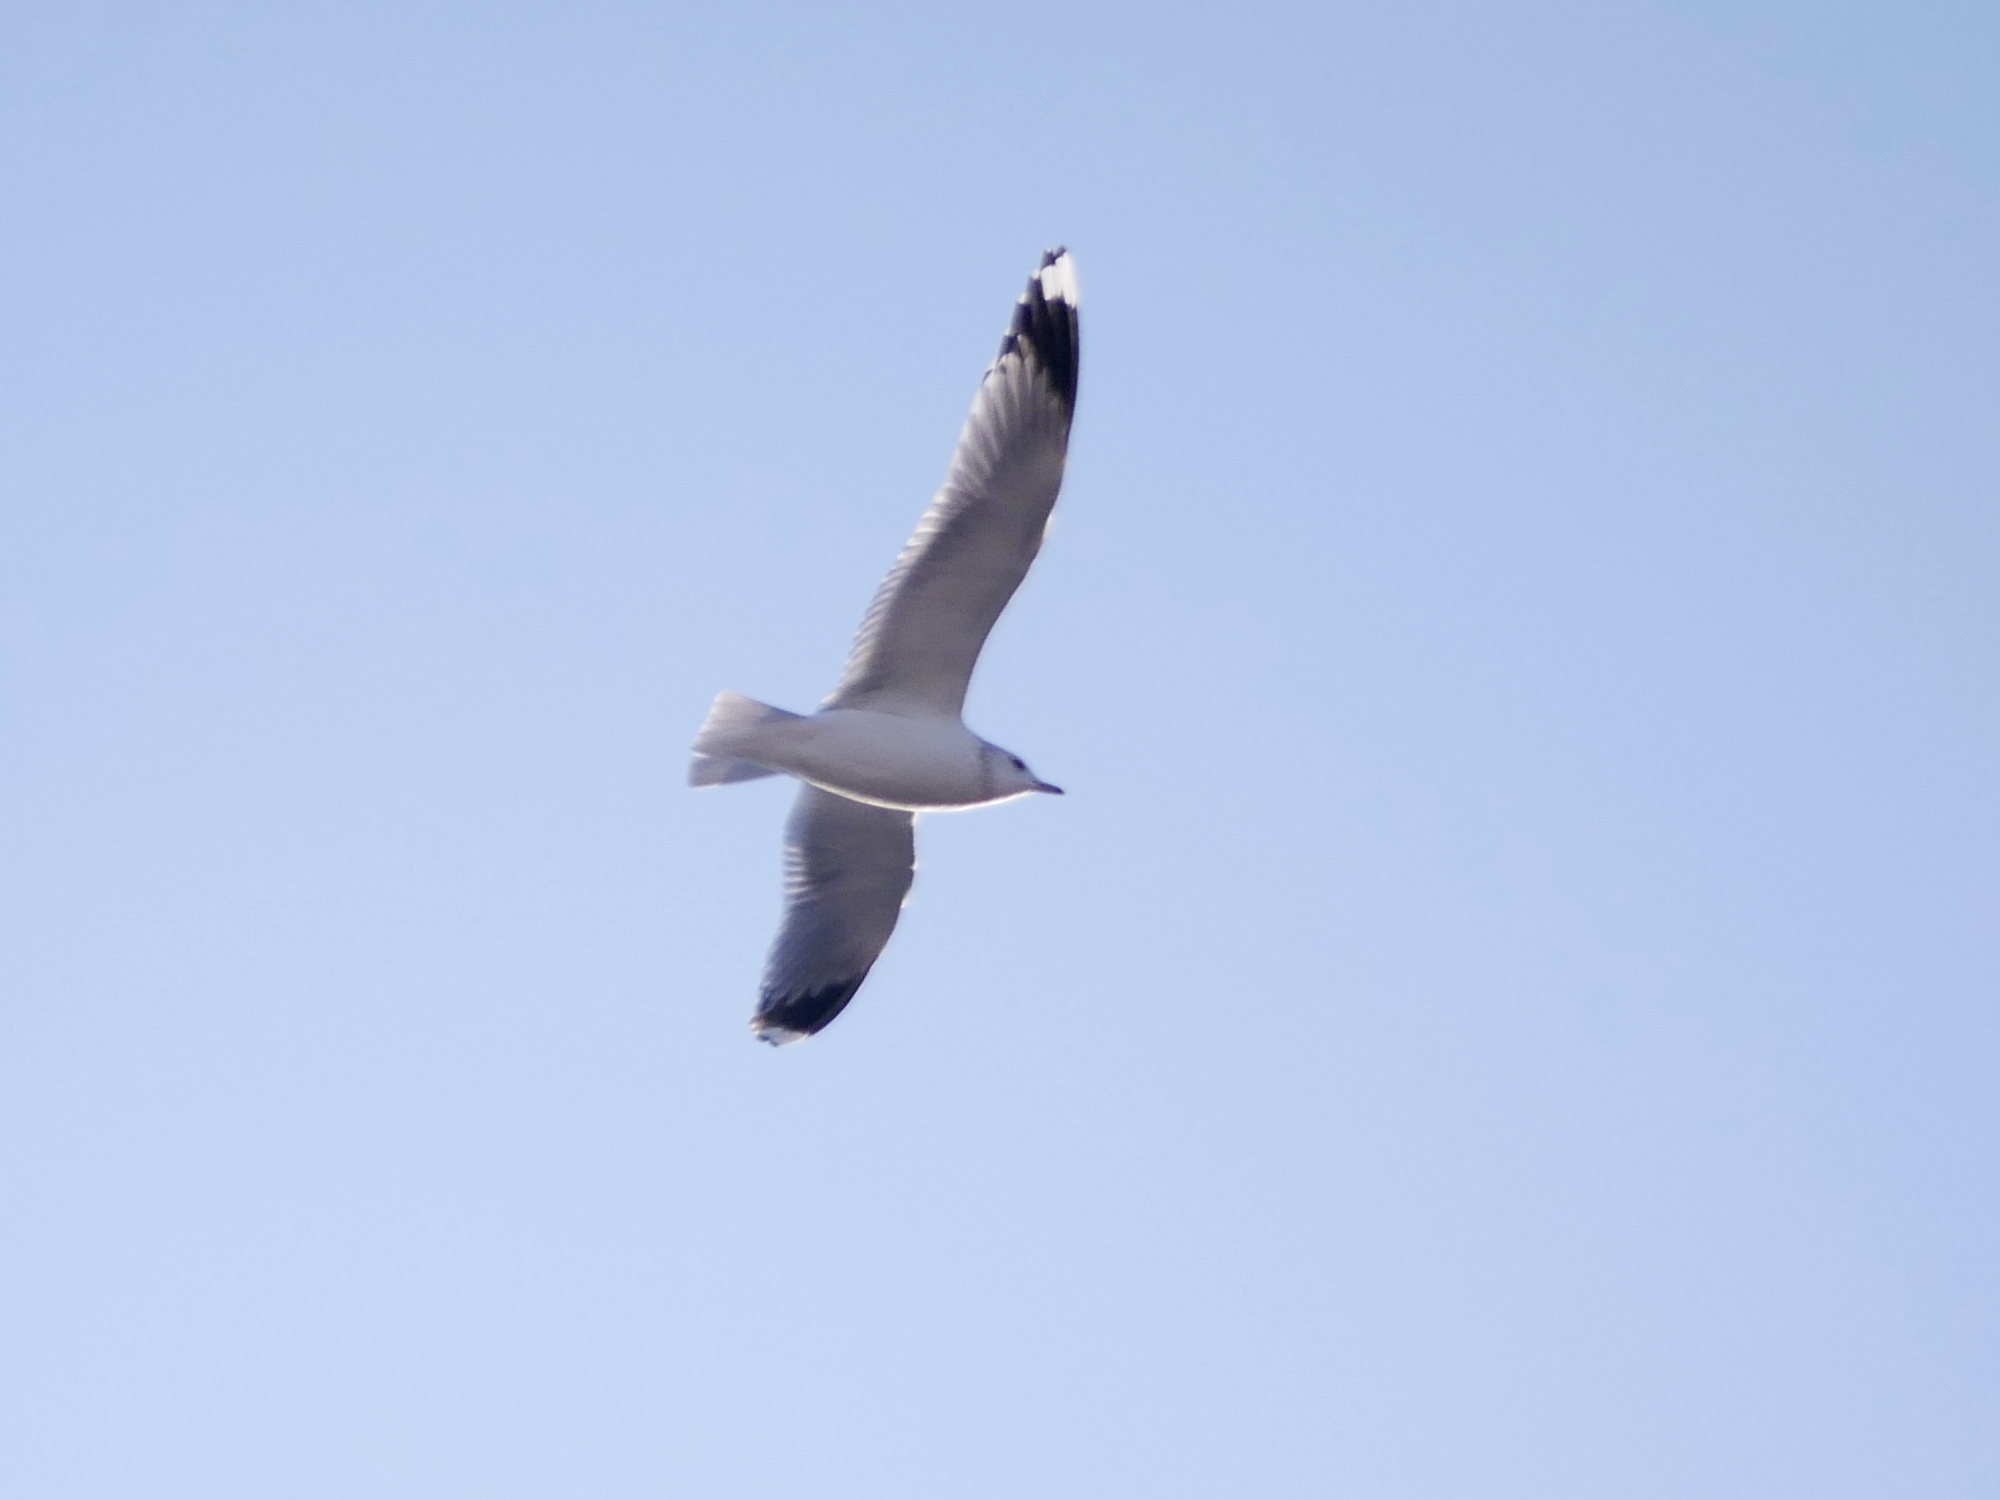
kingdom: Animalia
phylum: Chordata
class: Aves
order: Charadriiformes
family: Laridae
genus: Larus
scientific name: Larus canus
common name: Mew gull
